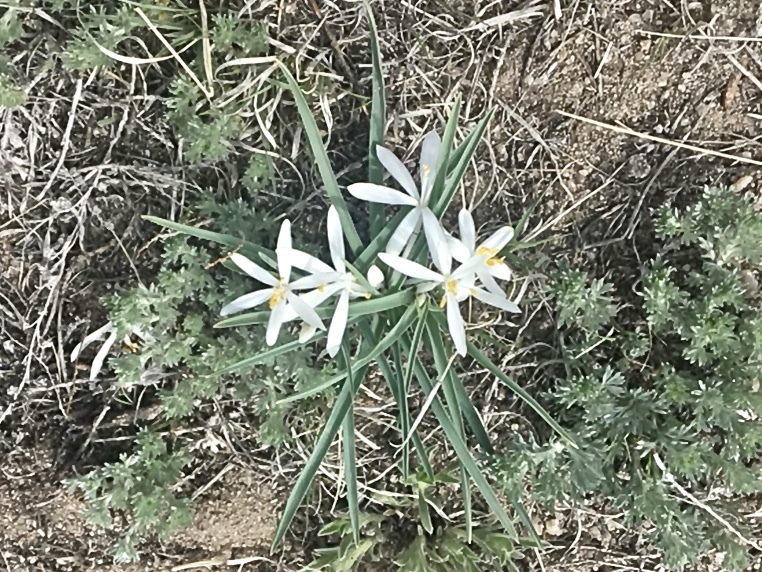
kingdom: Plantae
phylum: Tracheophyta
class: Liliopsida
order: Asparagales
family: Asparagaceae
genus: Leucocrinum
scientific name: Leucocrinum montanum
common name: Mountain-lily
